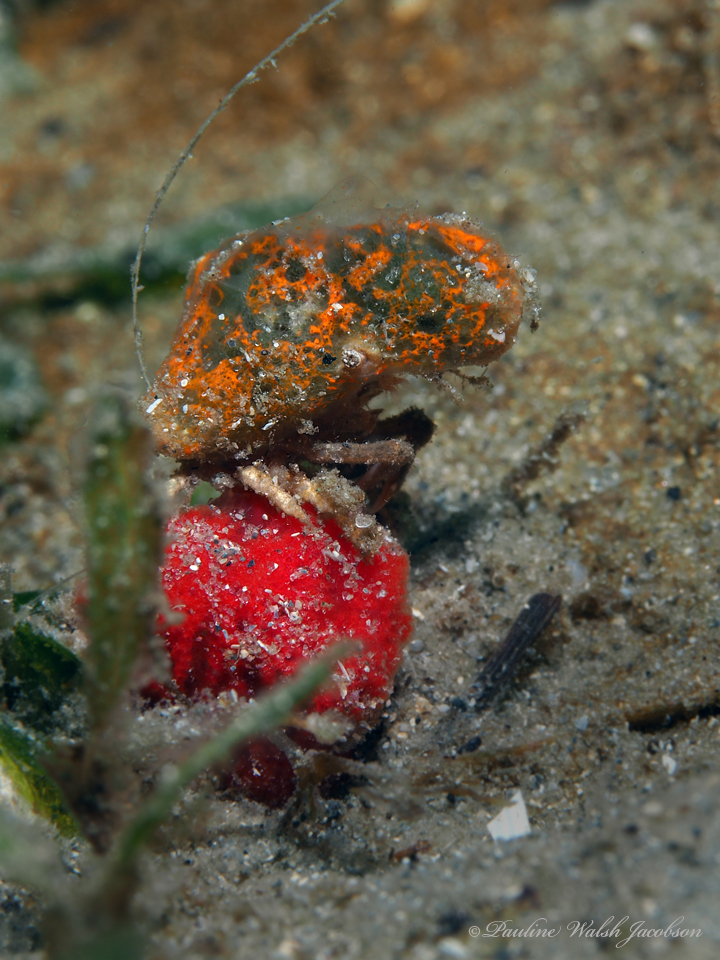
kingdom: Animalia
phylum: Arthropoda
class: Malacostraca
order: Decapoda
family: Epialtidae
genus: Macrocoeloma
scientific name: Macrocoeloma trispinosum
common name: Grass crab
